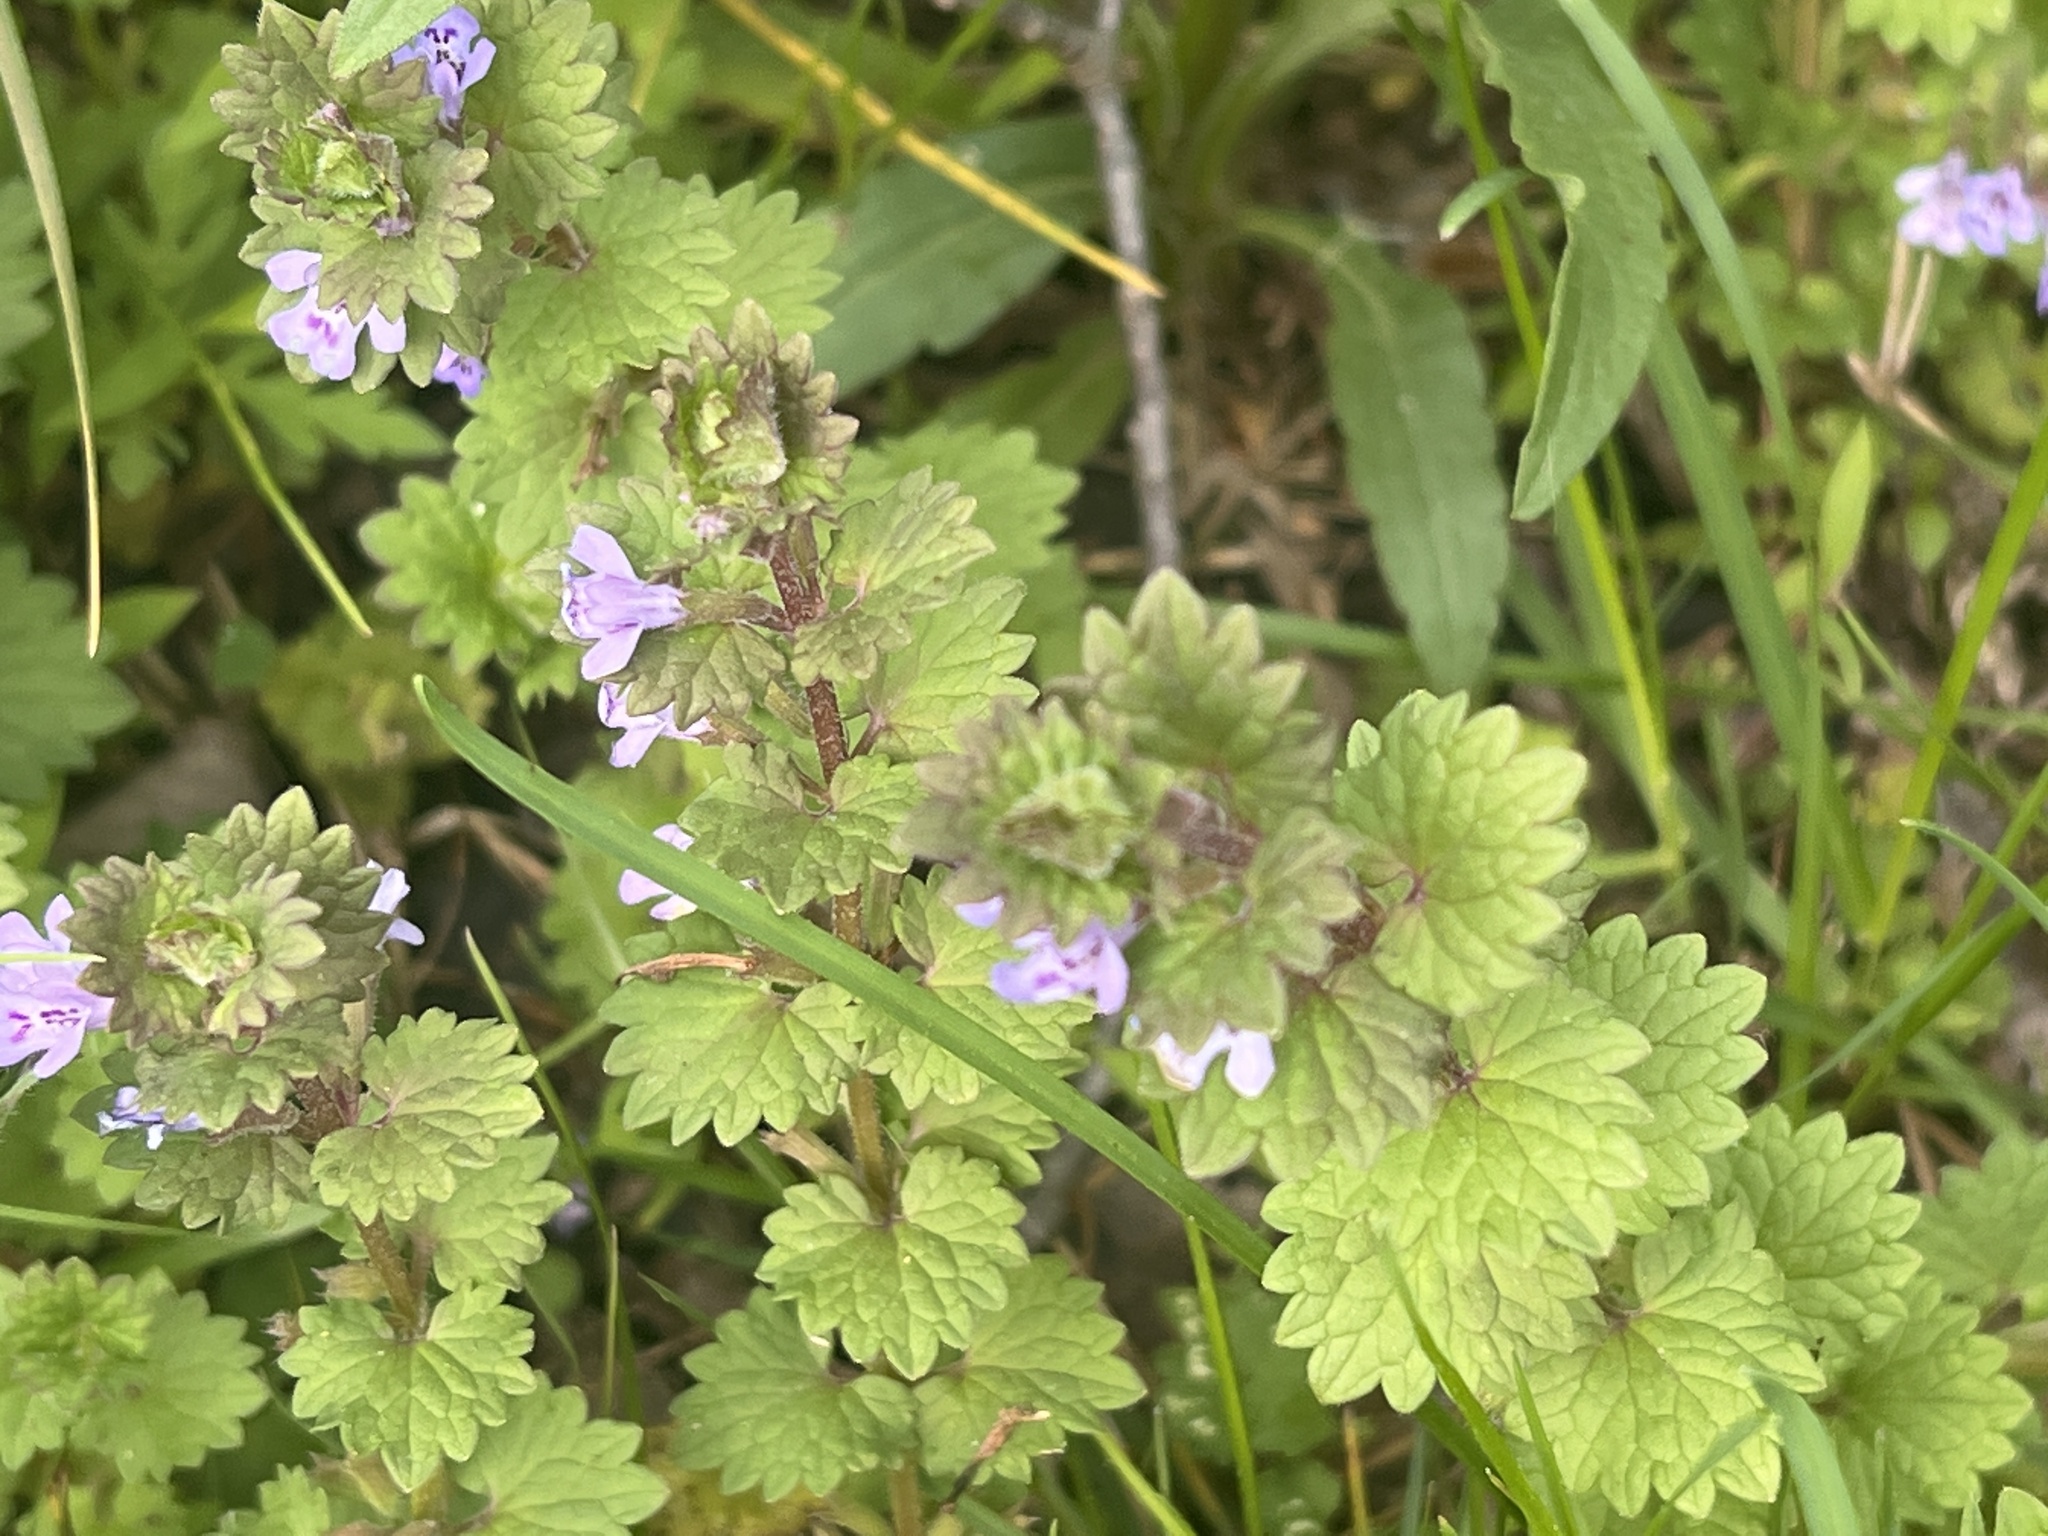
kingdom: Plantae
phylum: Tracheophyta
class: Magnoliopsida
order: Lamiales
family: Lamiaceae
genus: Glechoma
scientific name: Glechoma hederacea
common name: Ground ivy
